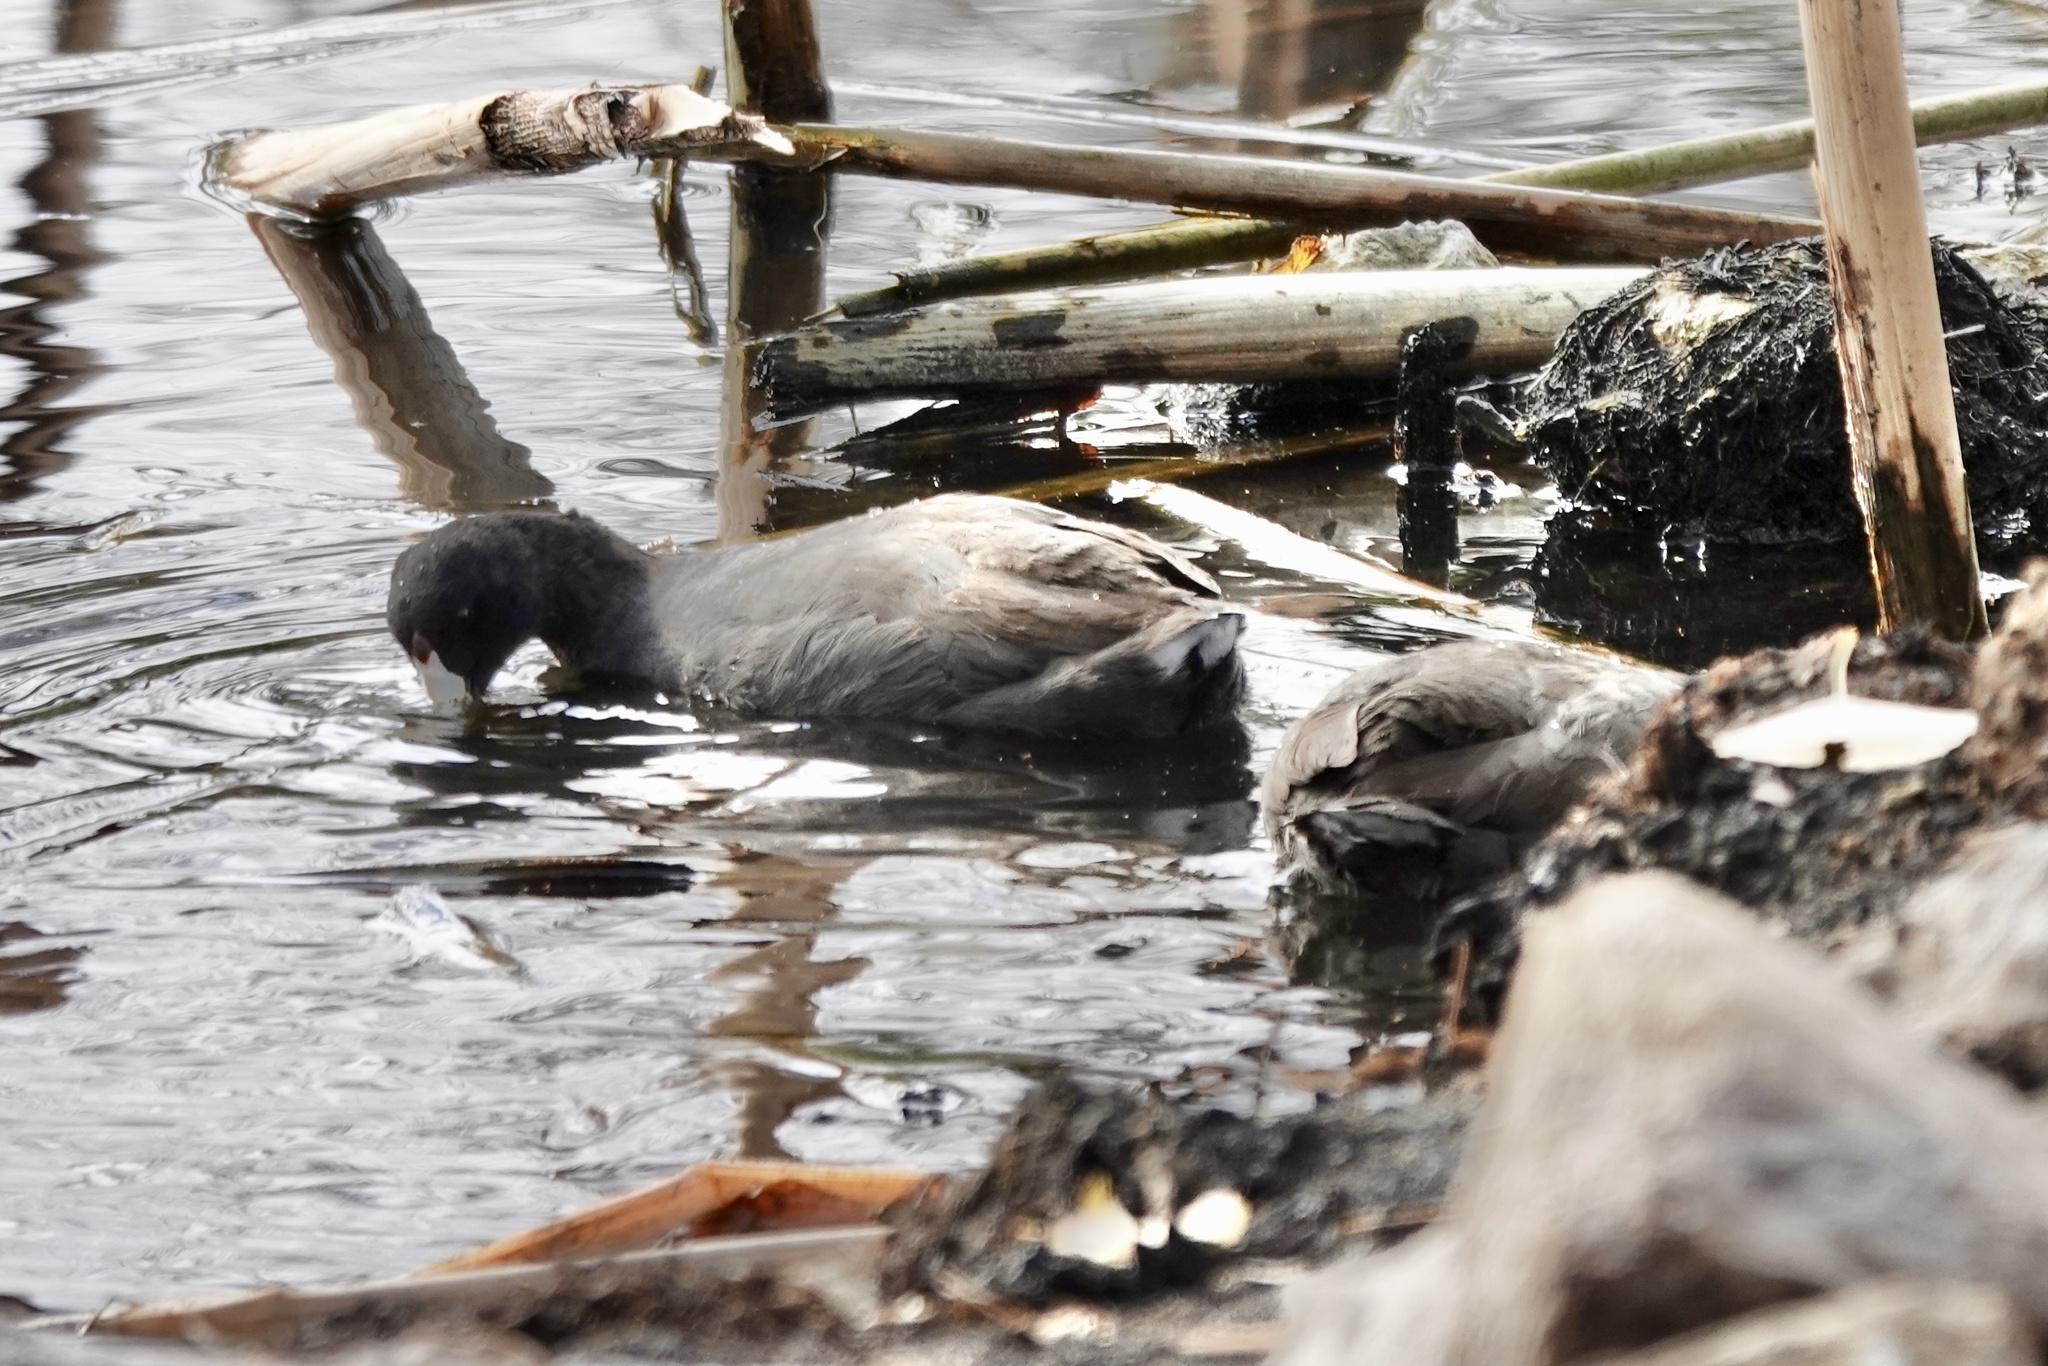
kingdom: Animalia
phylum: Chordata
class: Aves
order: Gruiformes
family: Rallidae
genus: Fulica
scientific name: Fulica americana
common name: American coot
